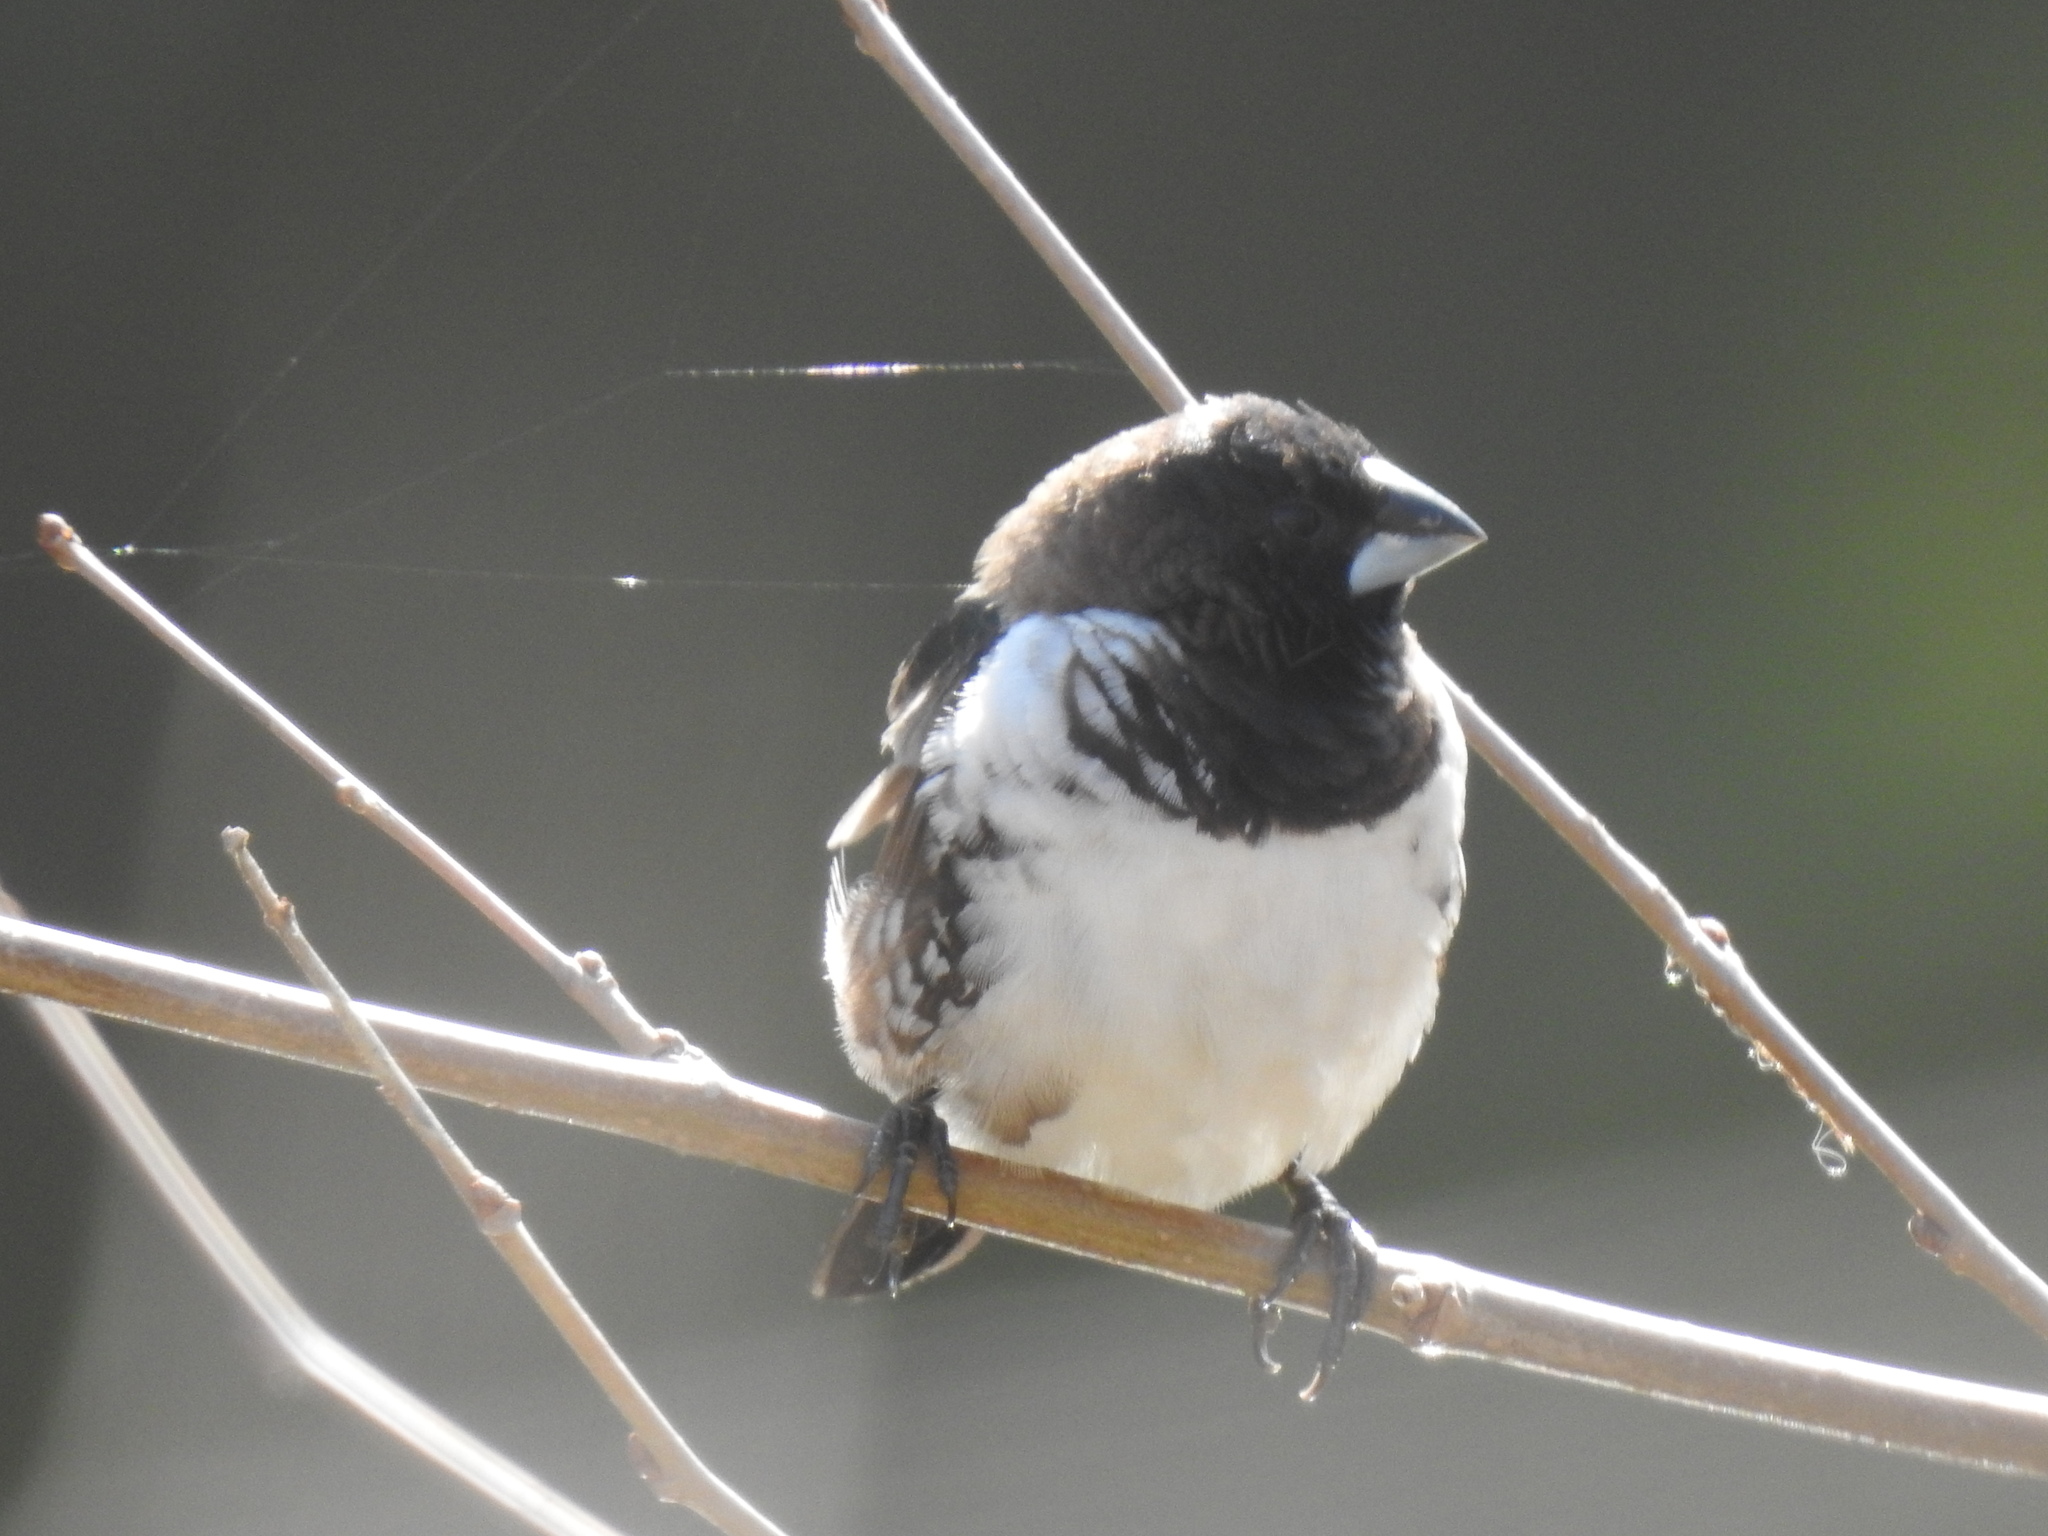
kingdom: Animalia
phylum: Chordata
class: Aves
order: Passeriformes
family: Estrildidae
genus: Lonchura
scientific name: Lonchura cucullata
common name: Bronze mannikin
